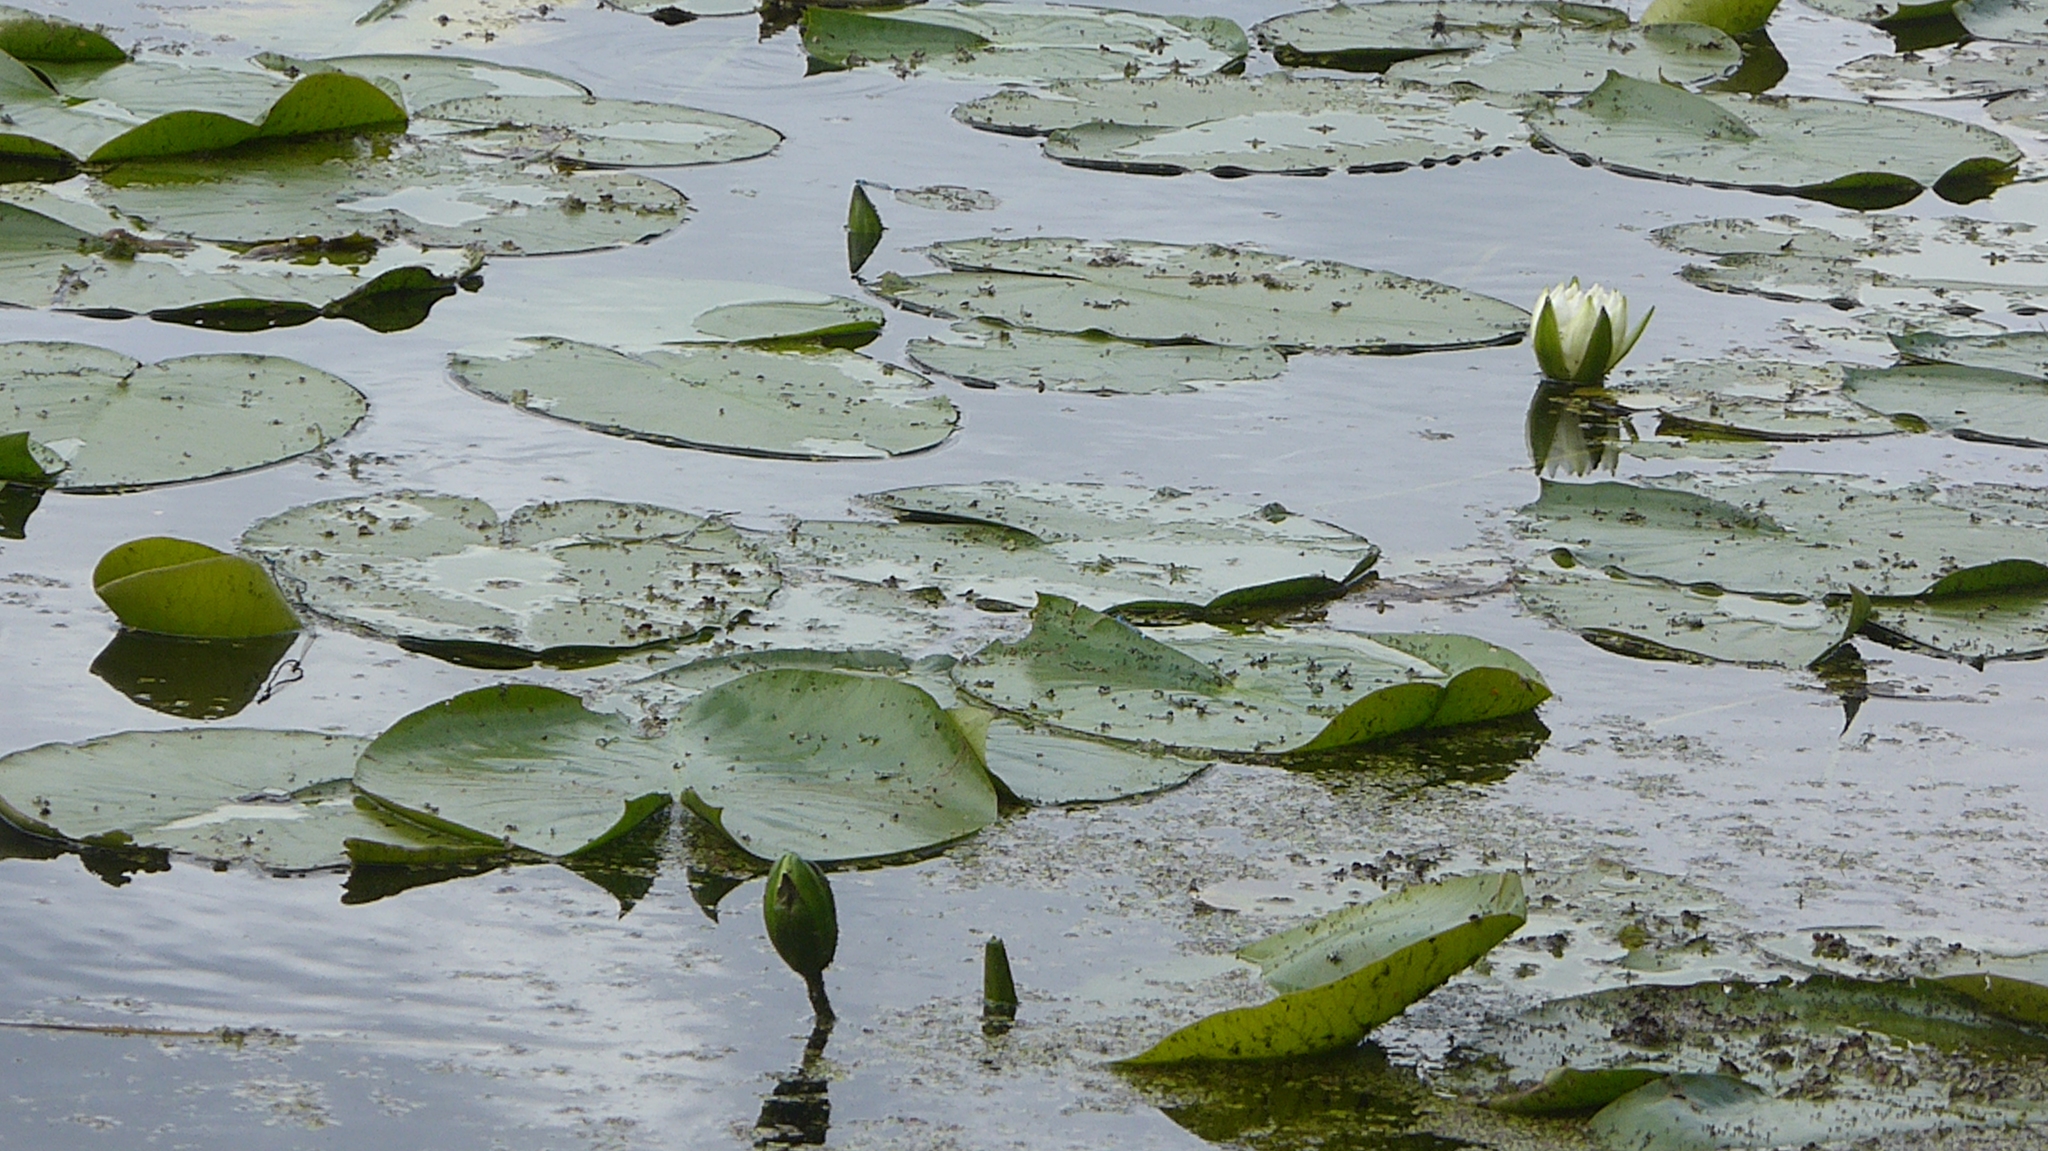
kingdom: Plantae
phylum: Tracheophyta
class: Magnoliopsida
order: Nymphaeales
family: Nymphaeaceae
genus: Nymphaea
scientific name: Nymphaea odorata
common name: Fragrant water-lily
